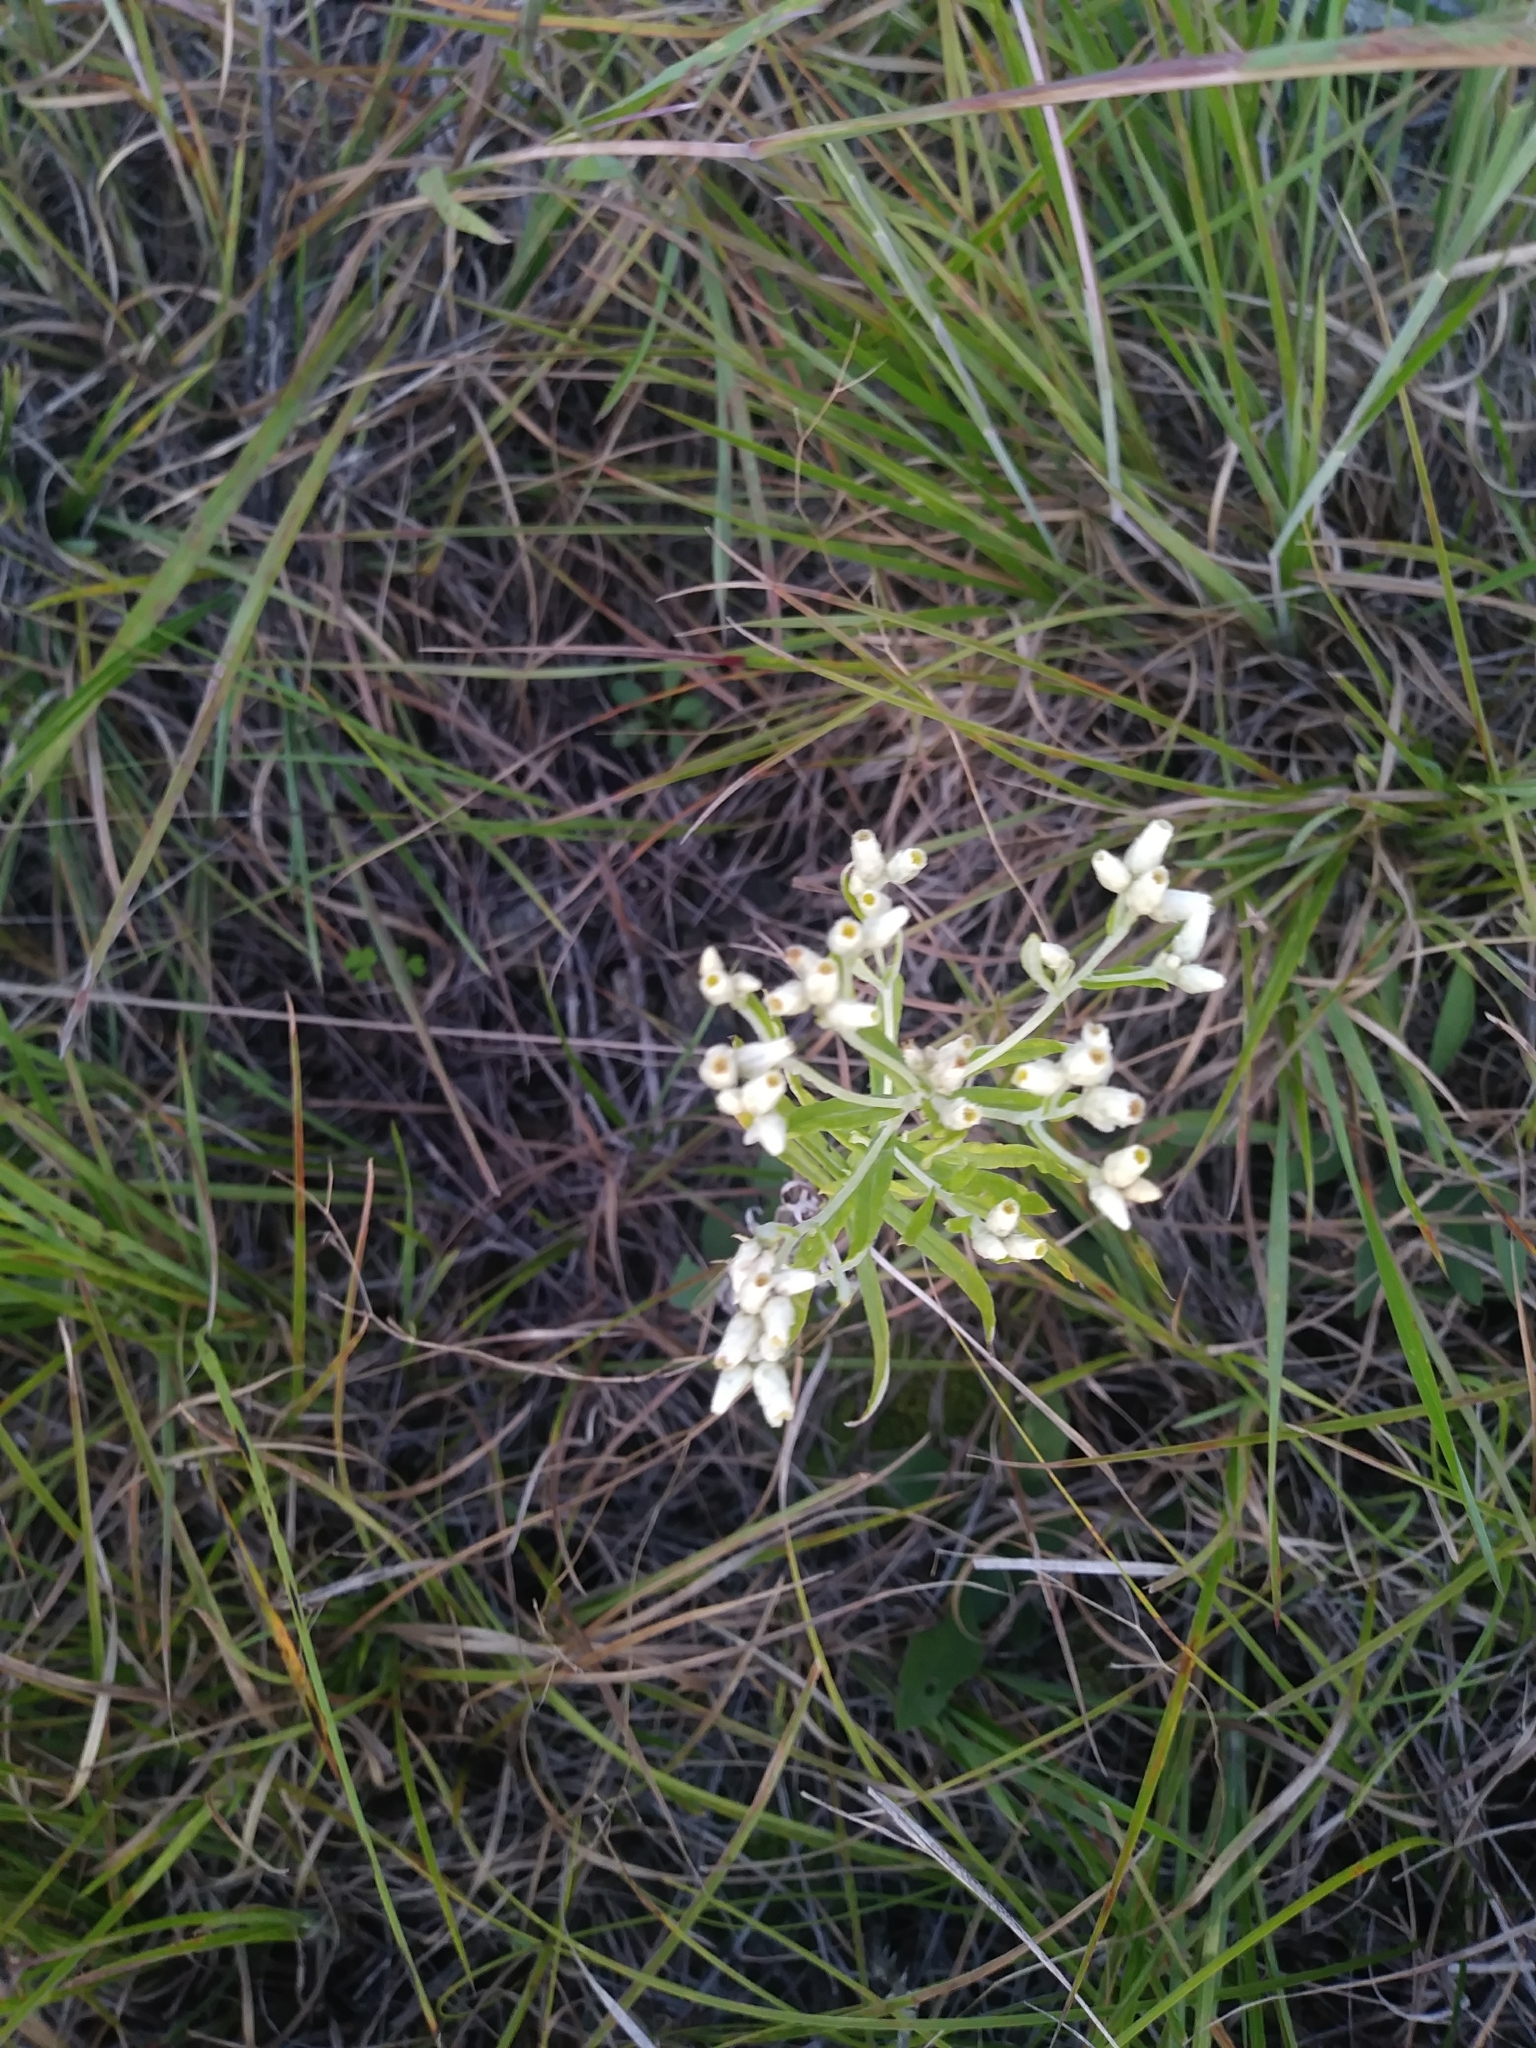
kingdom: Plantae
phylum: Tracheophyta
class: Magnoliopsida
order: Asterales
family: Asteraceae
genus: Pseudognaphalium
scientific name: Pseudognaphalium obtusifolium
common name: Eastern rabbit-tobacco
